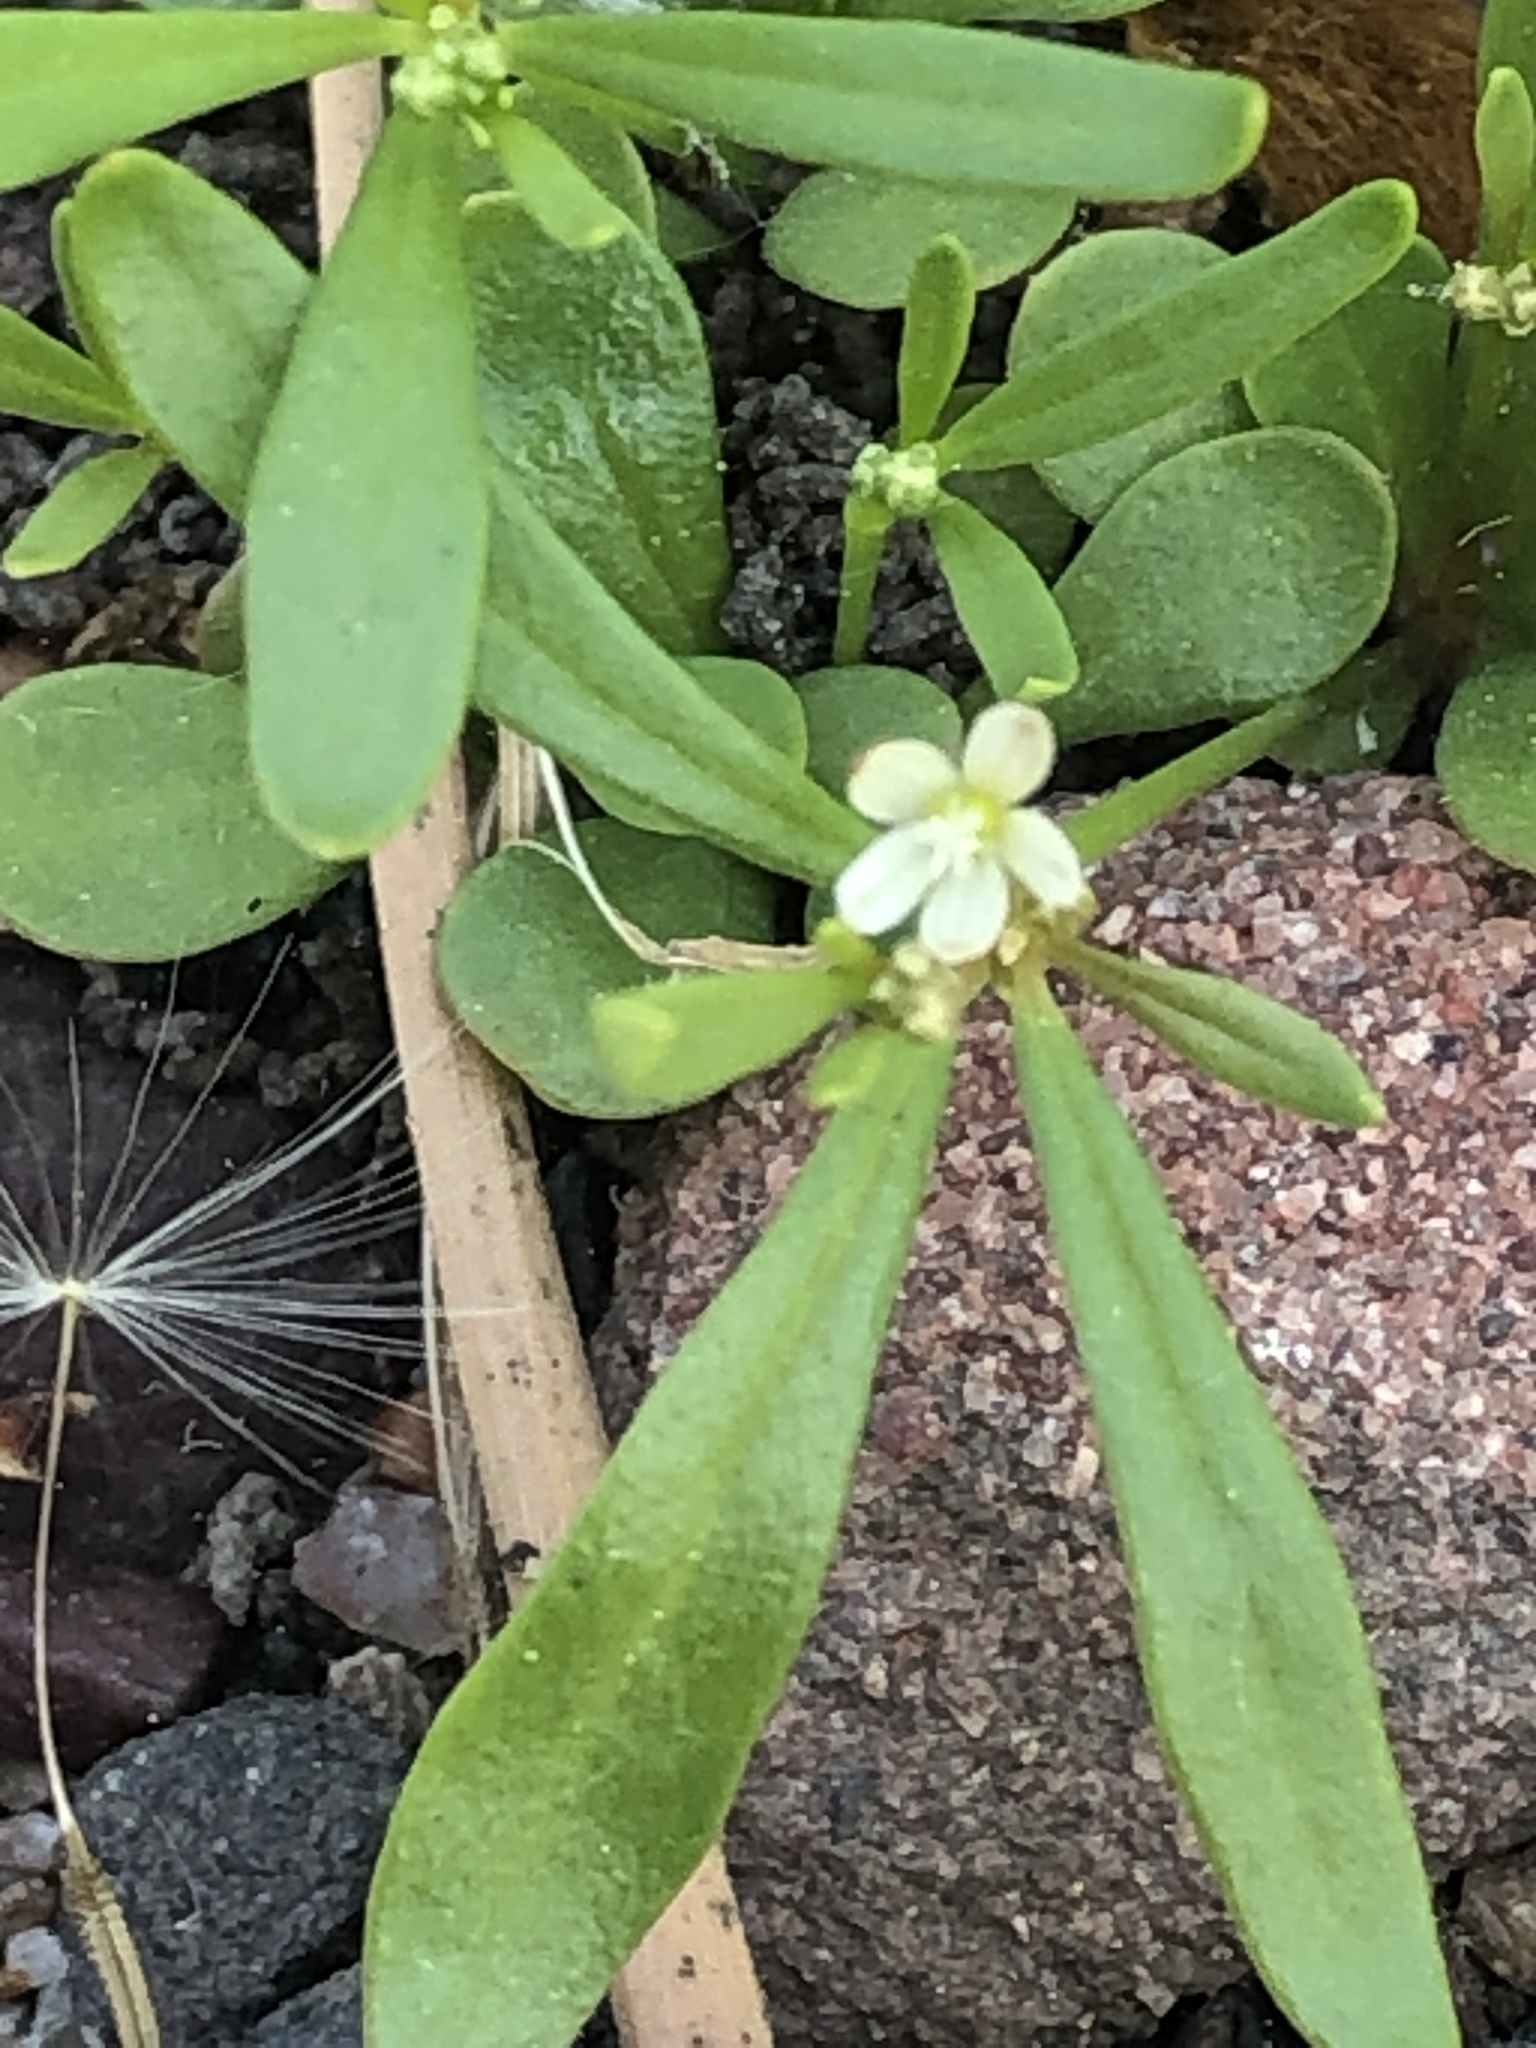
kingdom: Plantae
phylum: Tracheophyta
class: Magnoliopsida
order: Caryophyllales
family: Molluginaceae
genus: Mollugo
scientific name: Mollugo verticillata
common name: Green carpetweed
